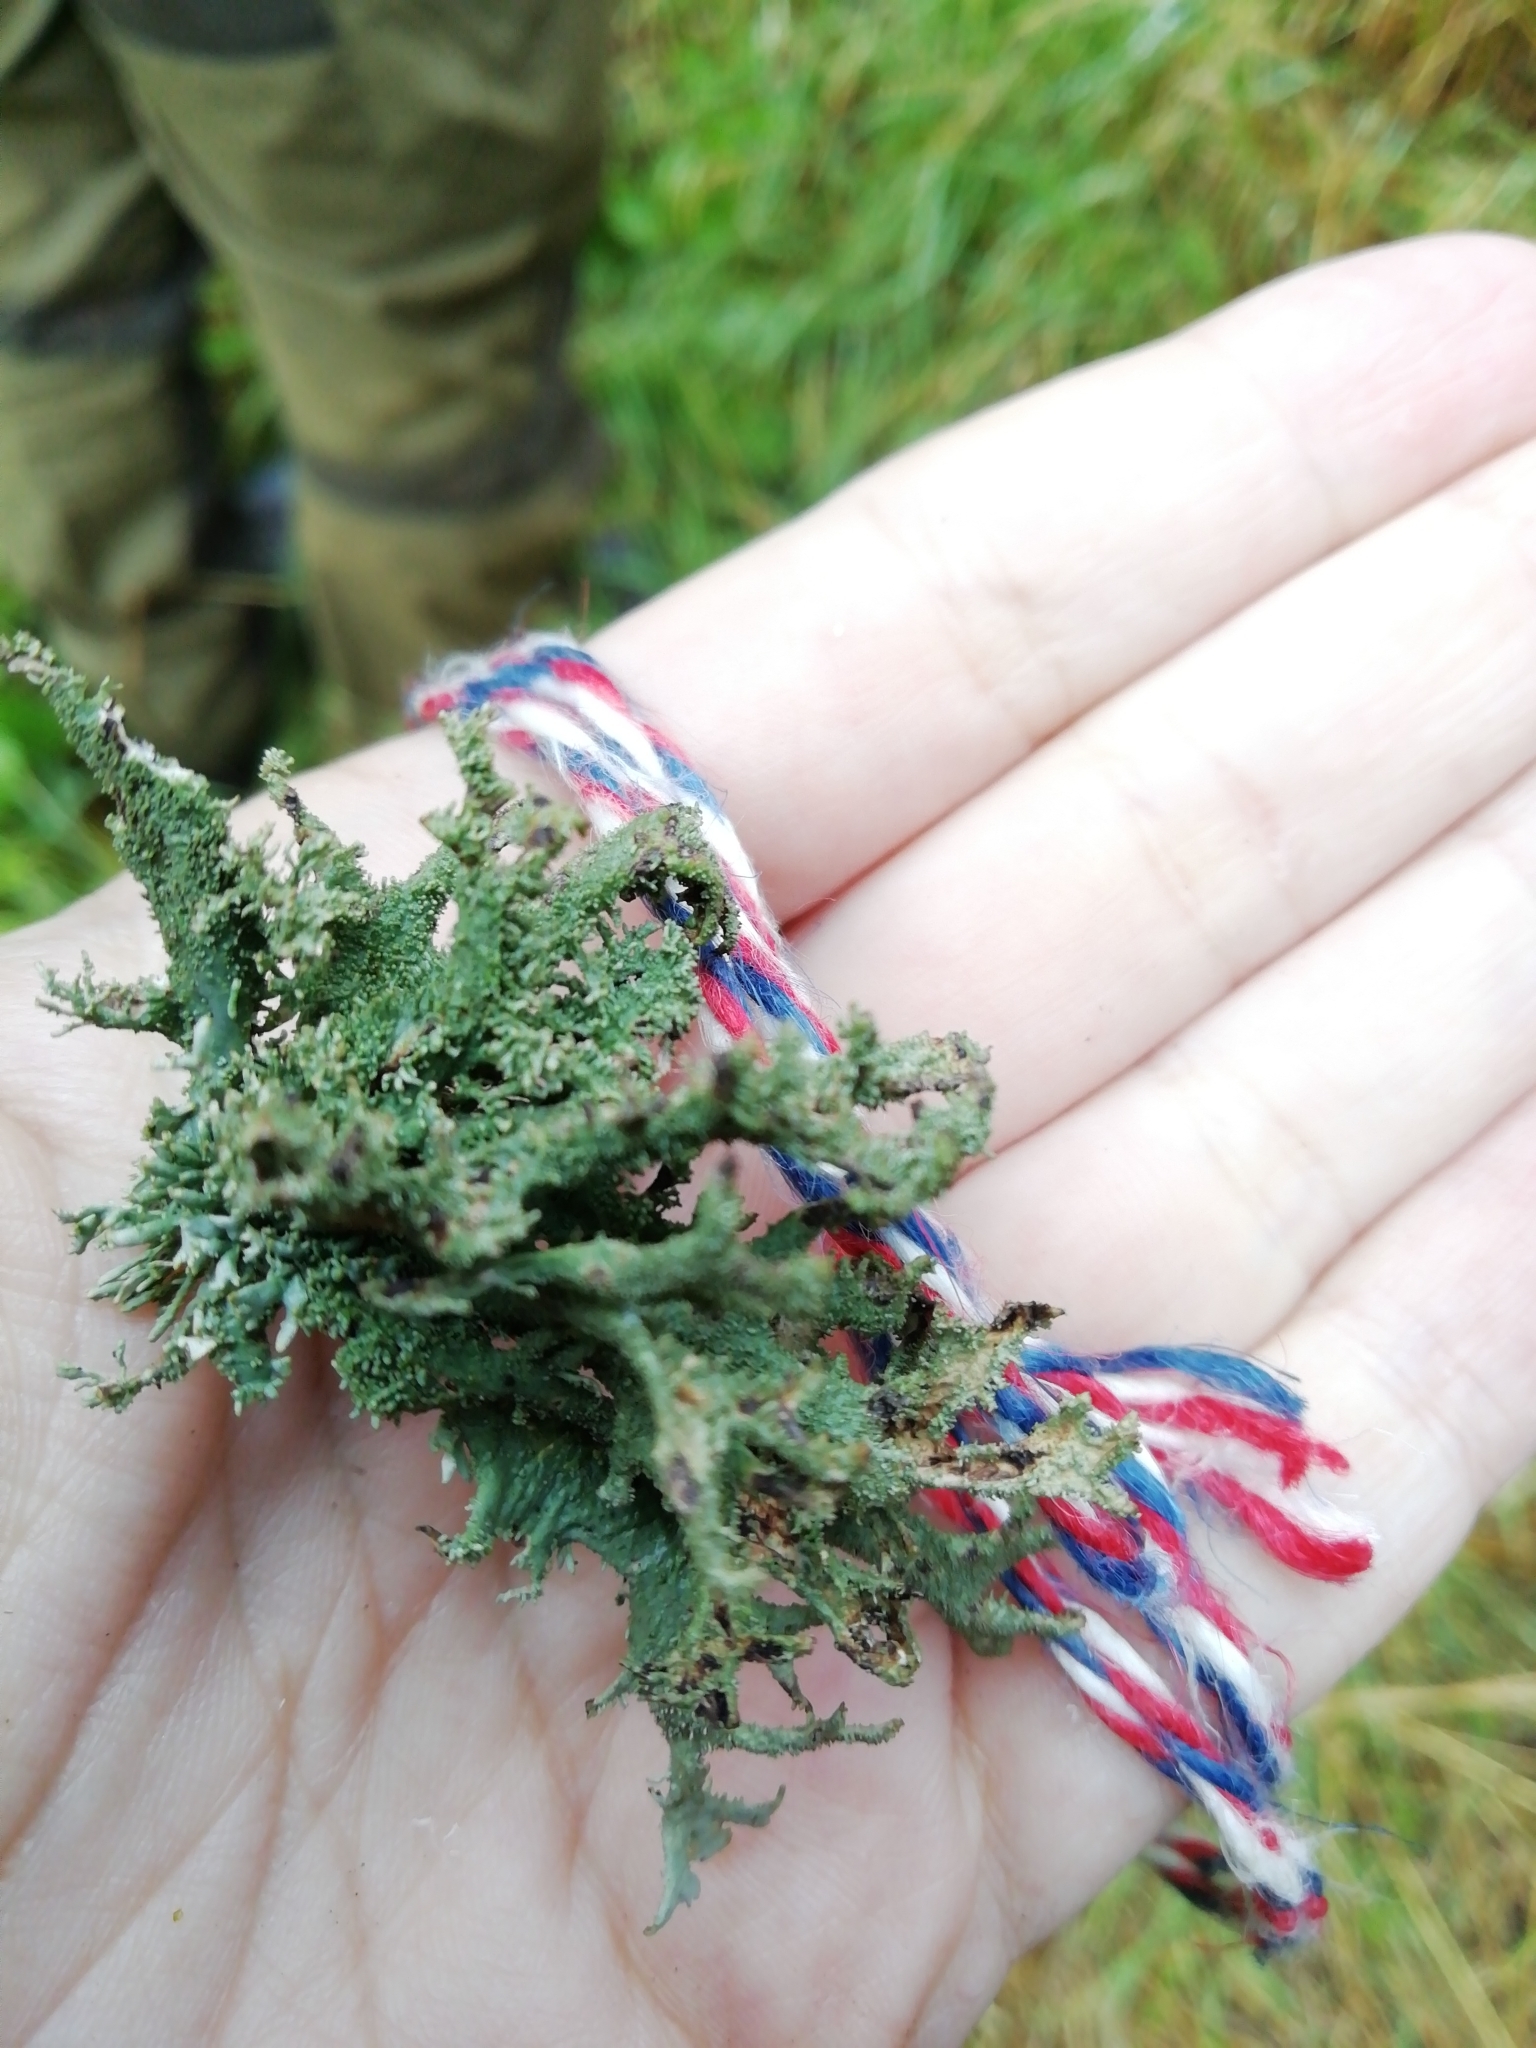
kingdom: Fungi
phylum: Ascomycota
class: Lecanoromycetes
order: Lecanorales
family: Parmeliaceae
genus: Pseudevernia
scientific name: Pseudevernia furfuracea
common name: Tree moss
